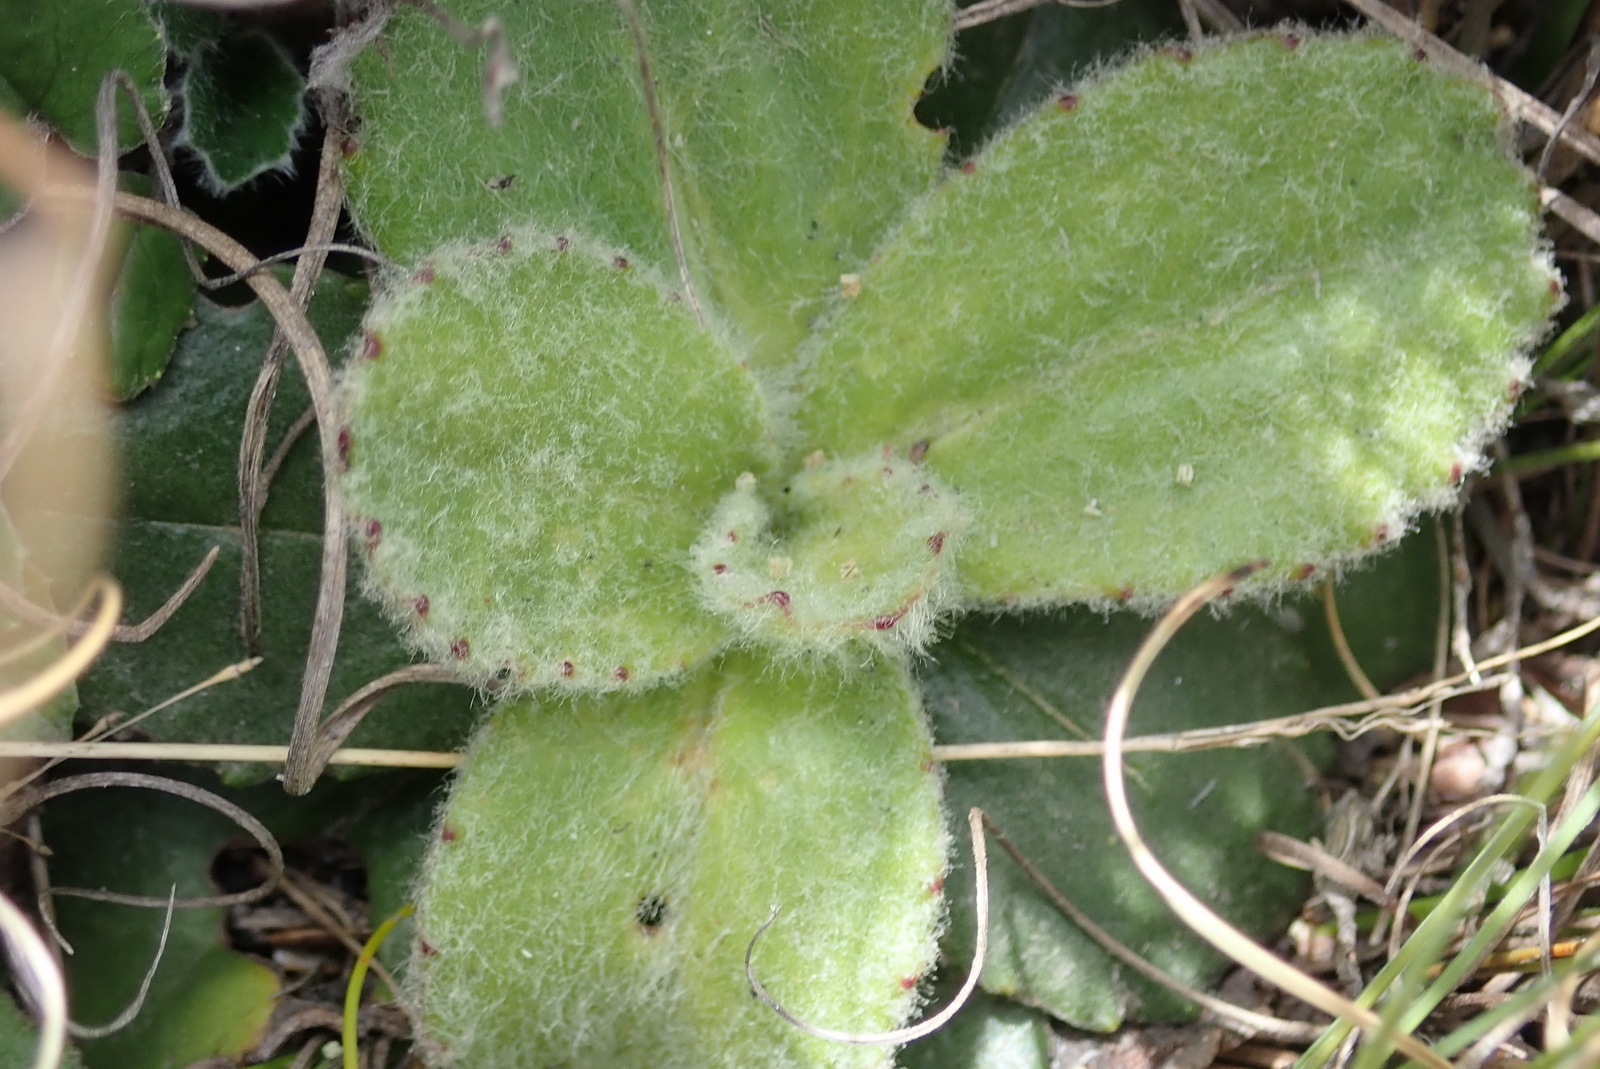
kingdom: Plantae
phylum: Tracheophyta
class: Magnoliopsida
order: Asterales
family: Asteraceae
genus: Zyrphelis
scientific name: Zyrphelis crenata
